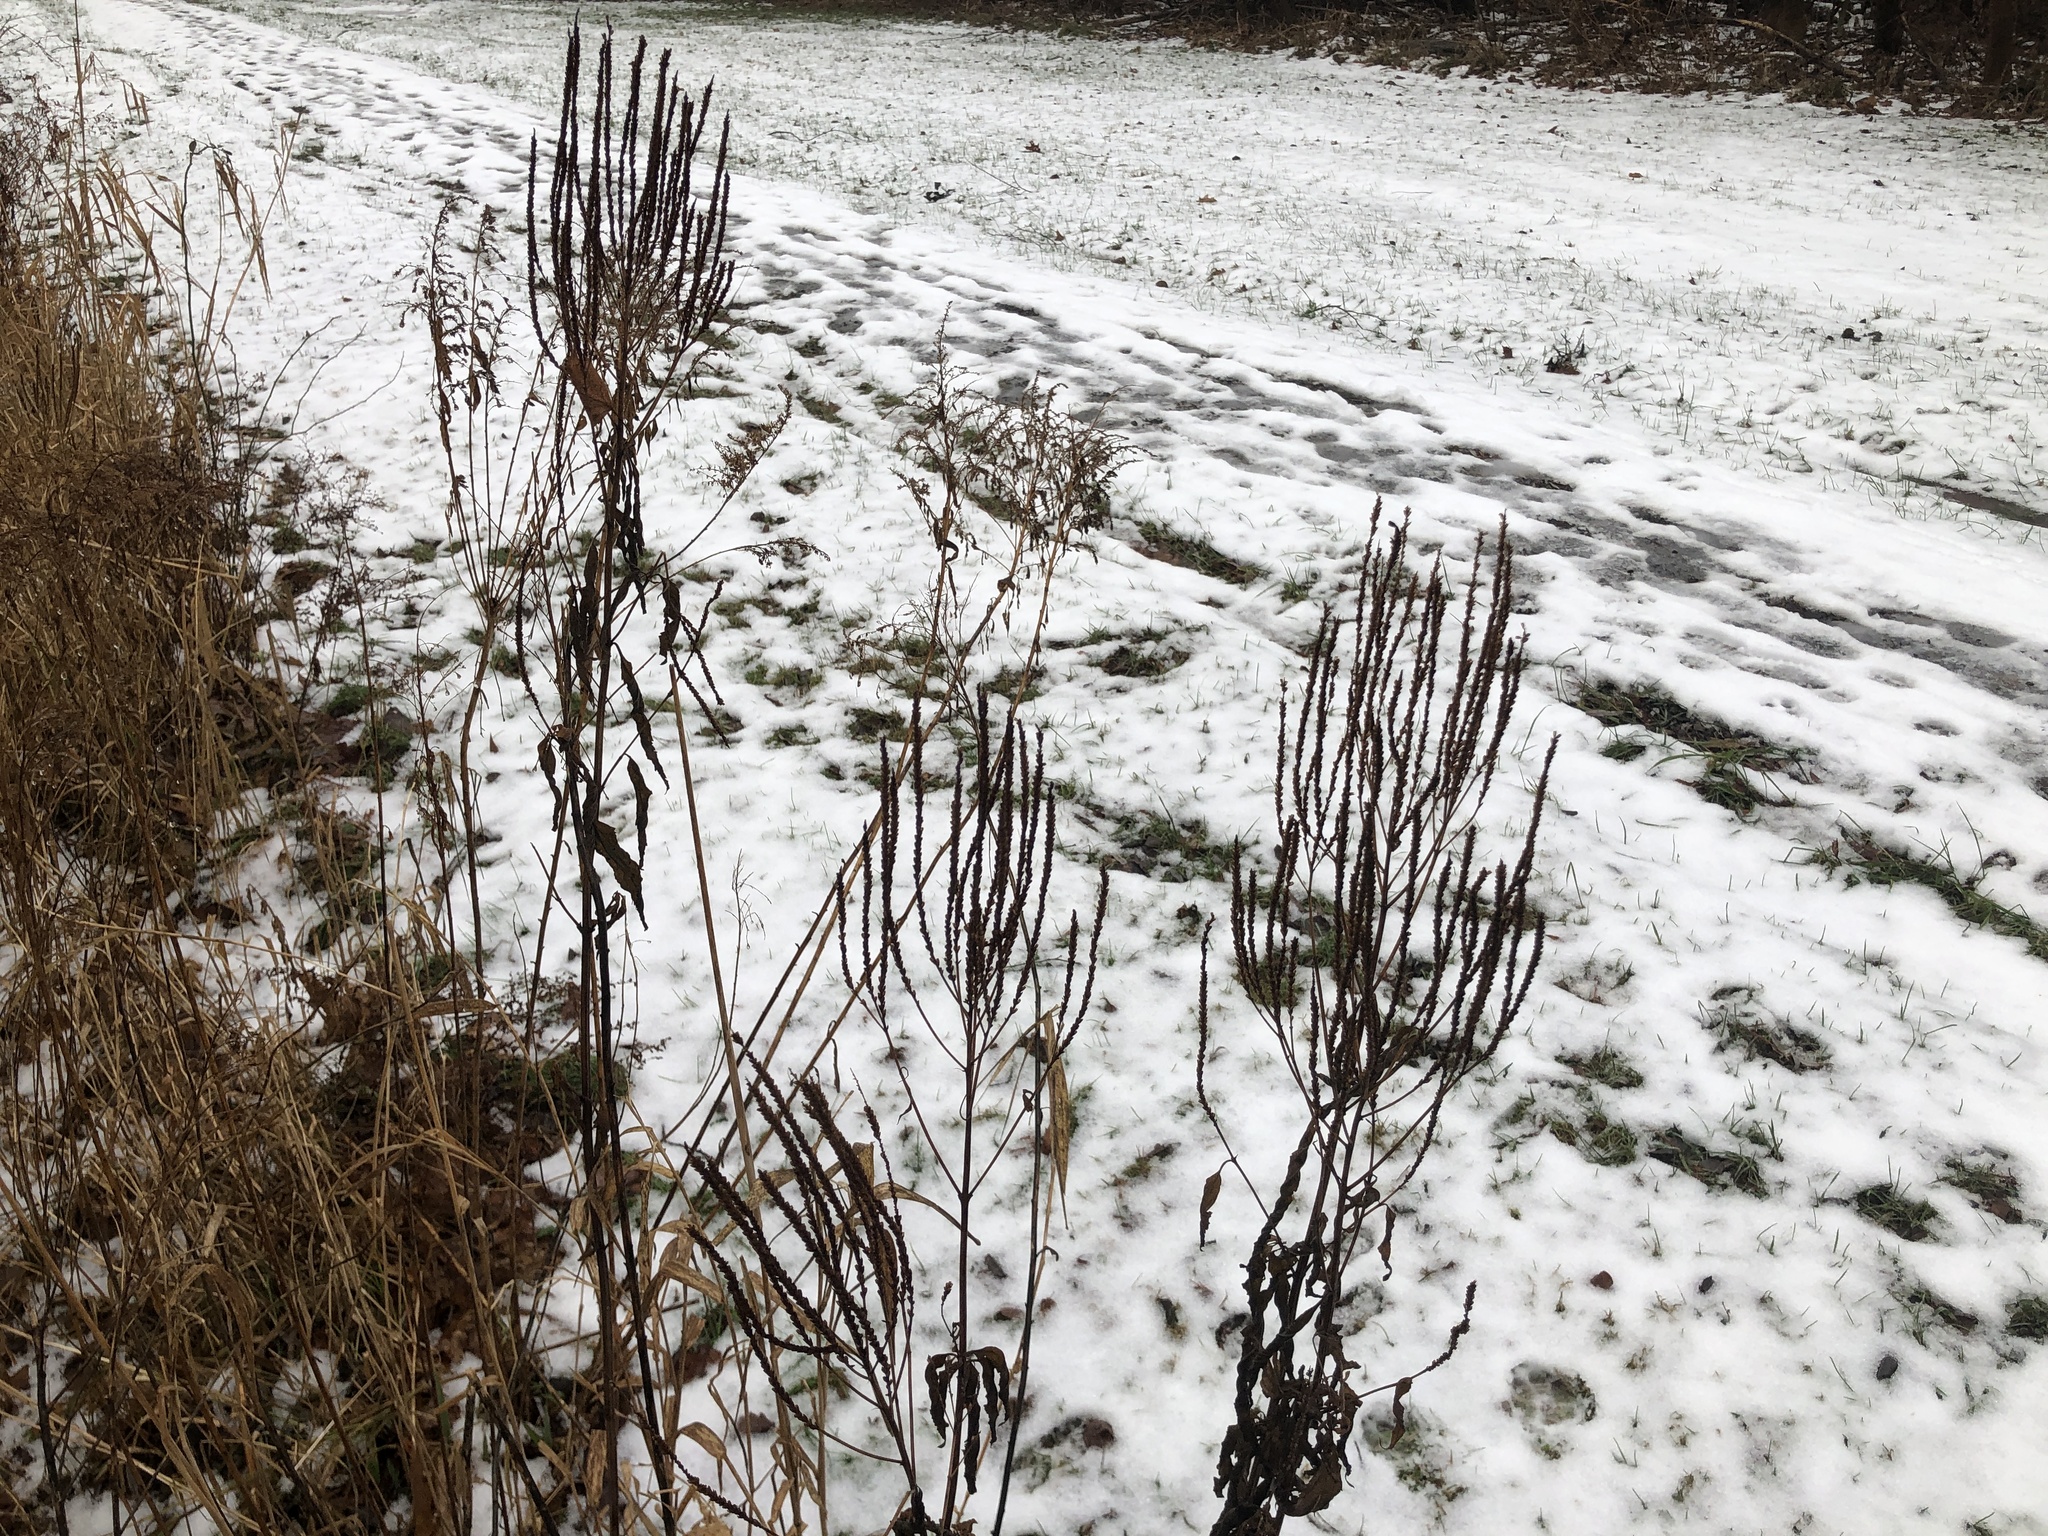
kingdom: Plantae
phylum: Tracheophyta
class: Magnoliopsida
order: Lamiales
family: Verbenaceae
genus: Verbena
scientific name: Verbena hastata
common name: American blue vervain
